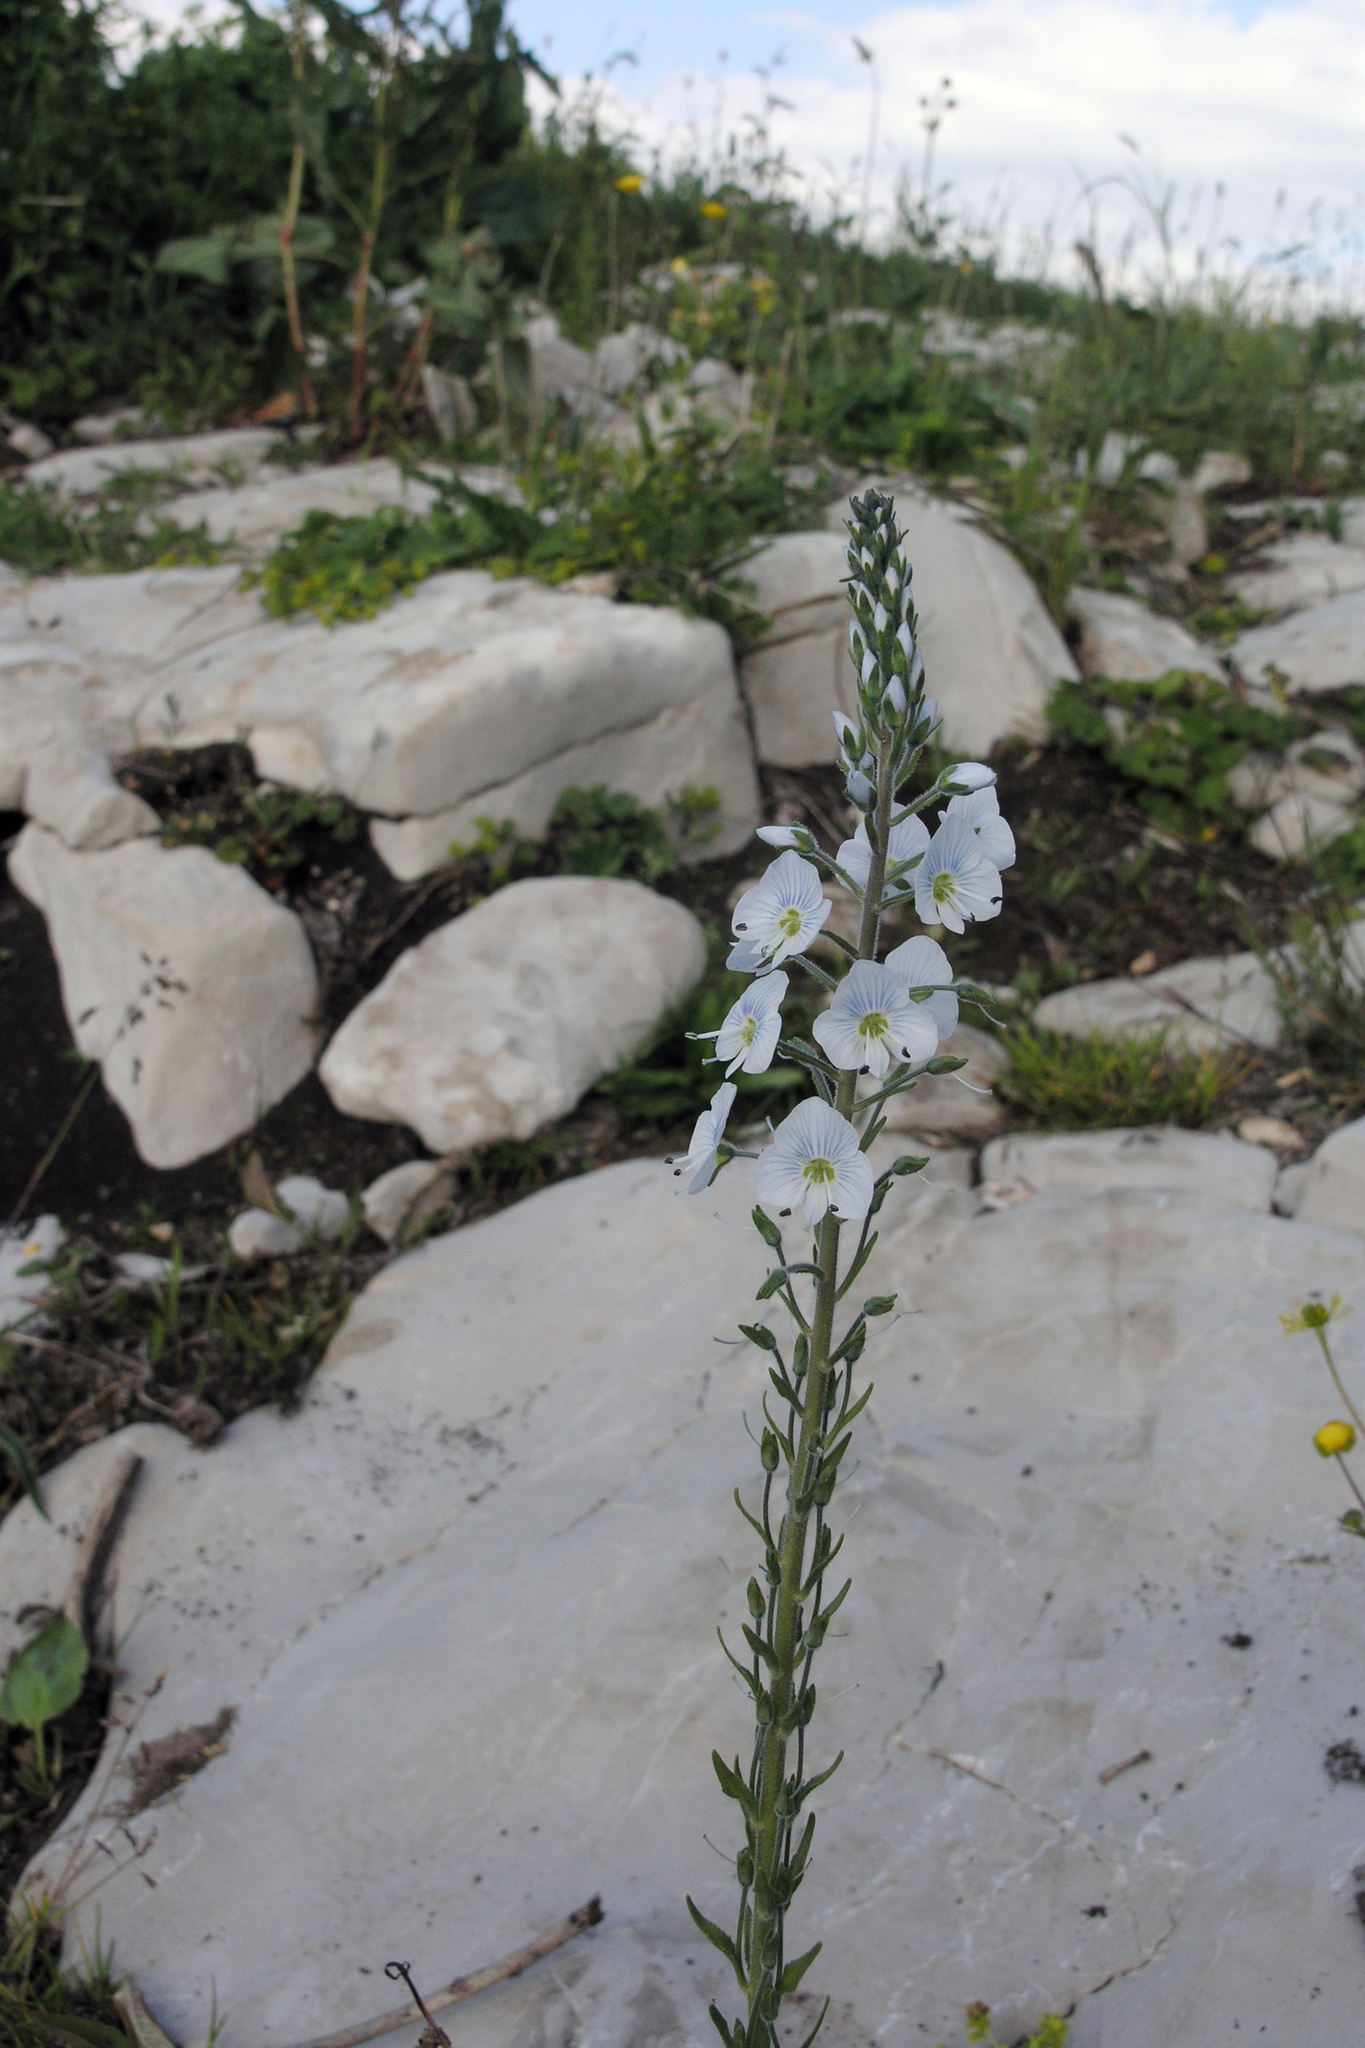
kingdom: Plantae
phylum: Tracheophyta
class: Magnoliopsida
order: Lamiales
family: Plantaginaceae
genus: Veronica
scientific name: Veronica gentianoides
